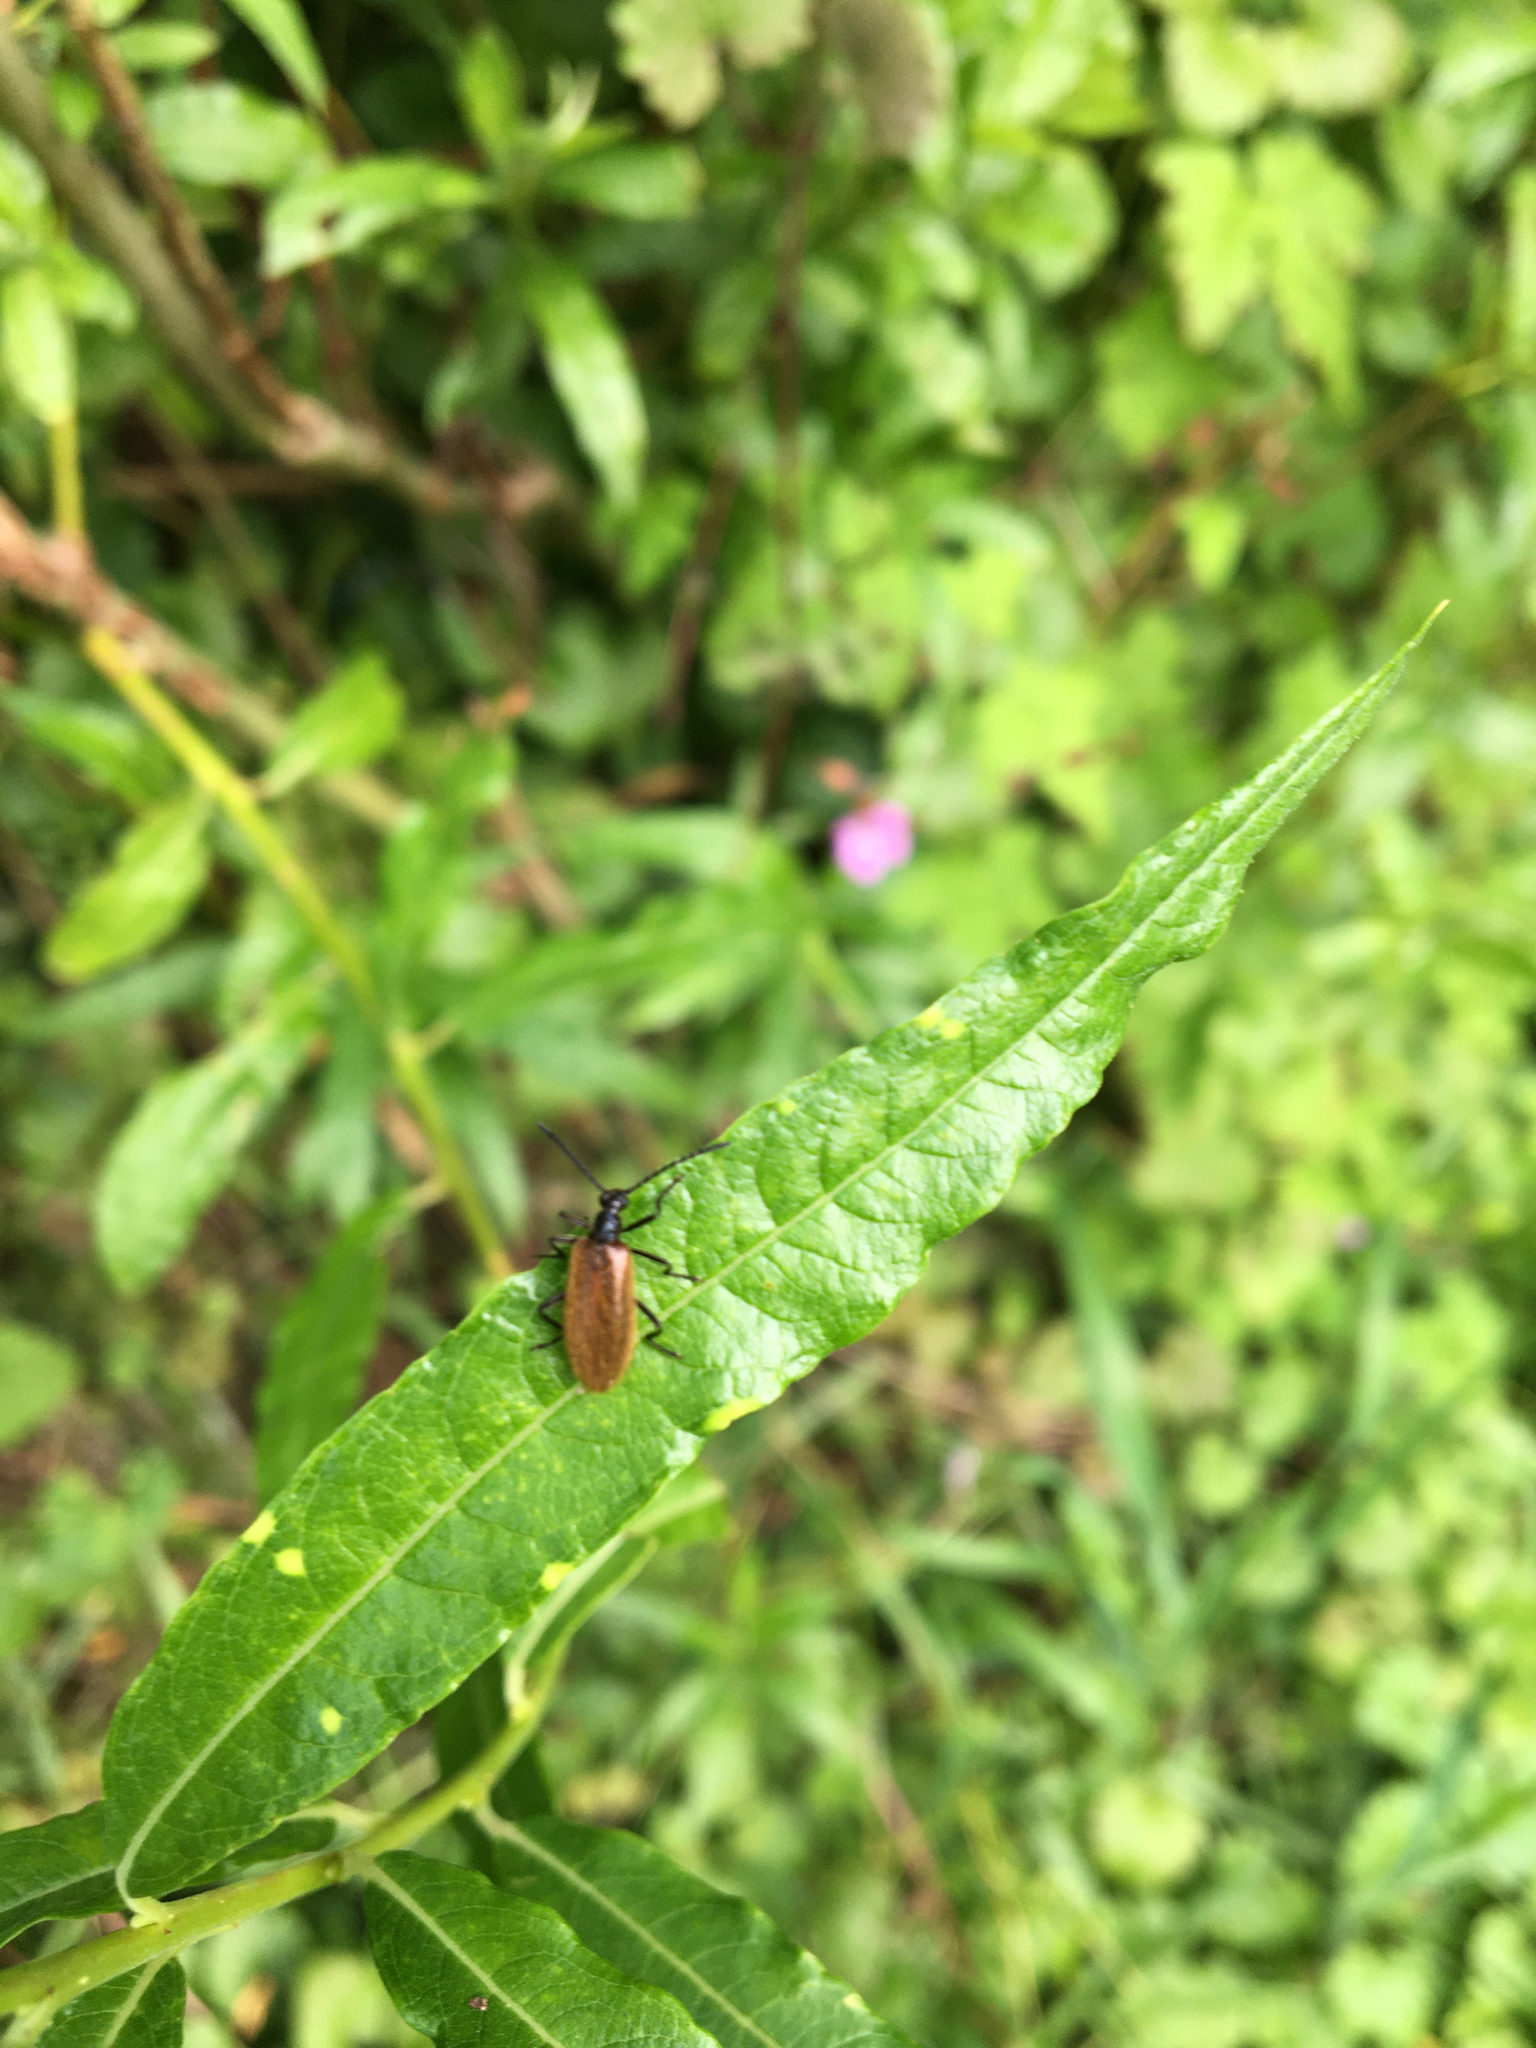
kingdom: Animalia
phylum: Arthropoda
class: Insecta
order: Coleoptera
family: Tenebrionidae
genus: Lagria
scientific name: Lagria hirta
